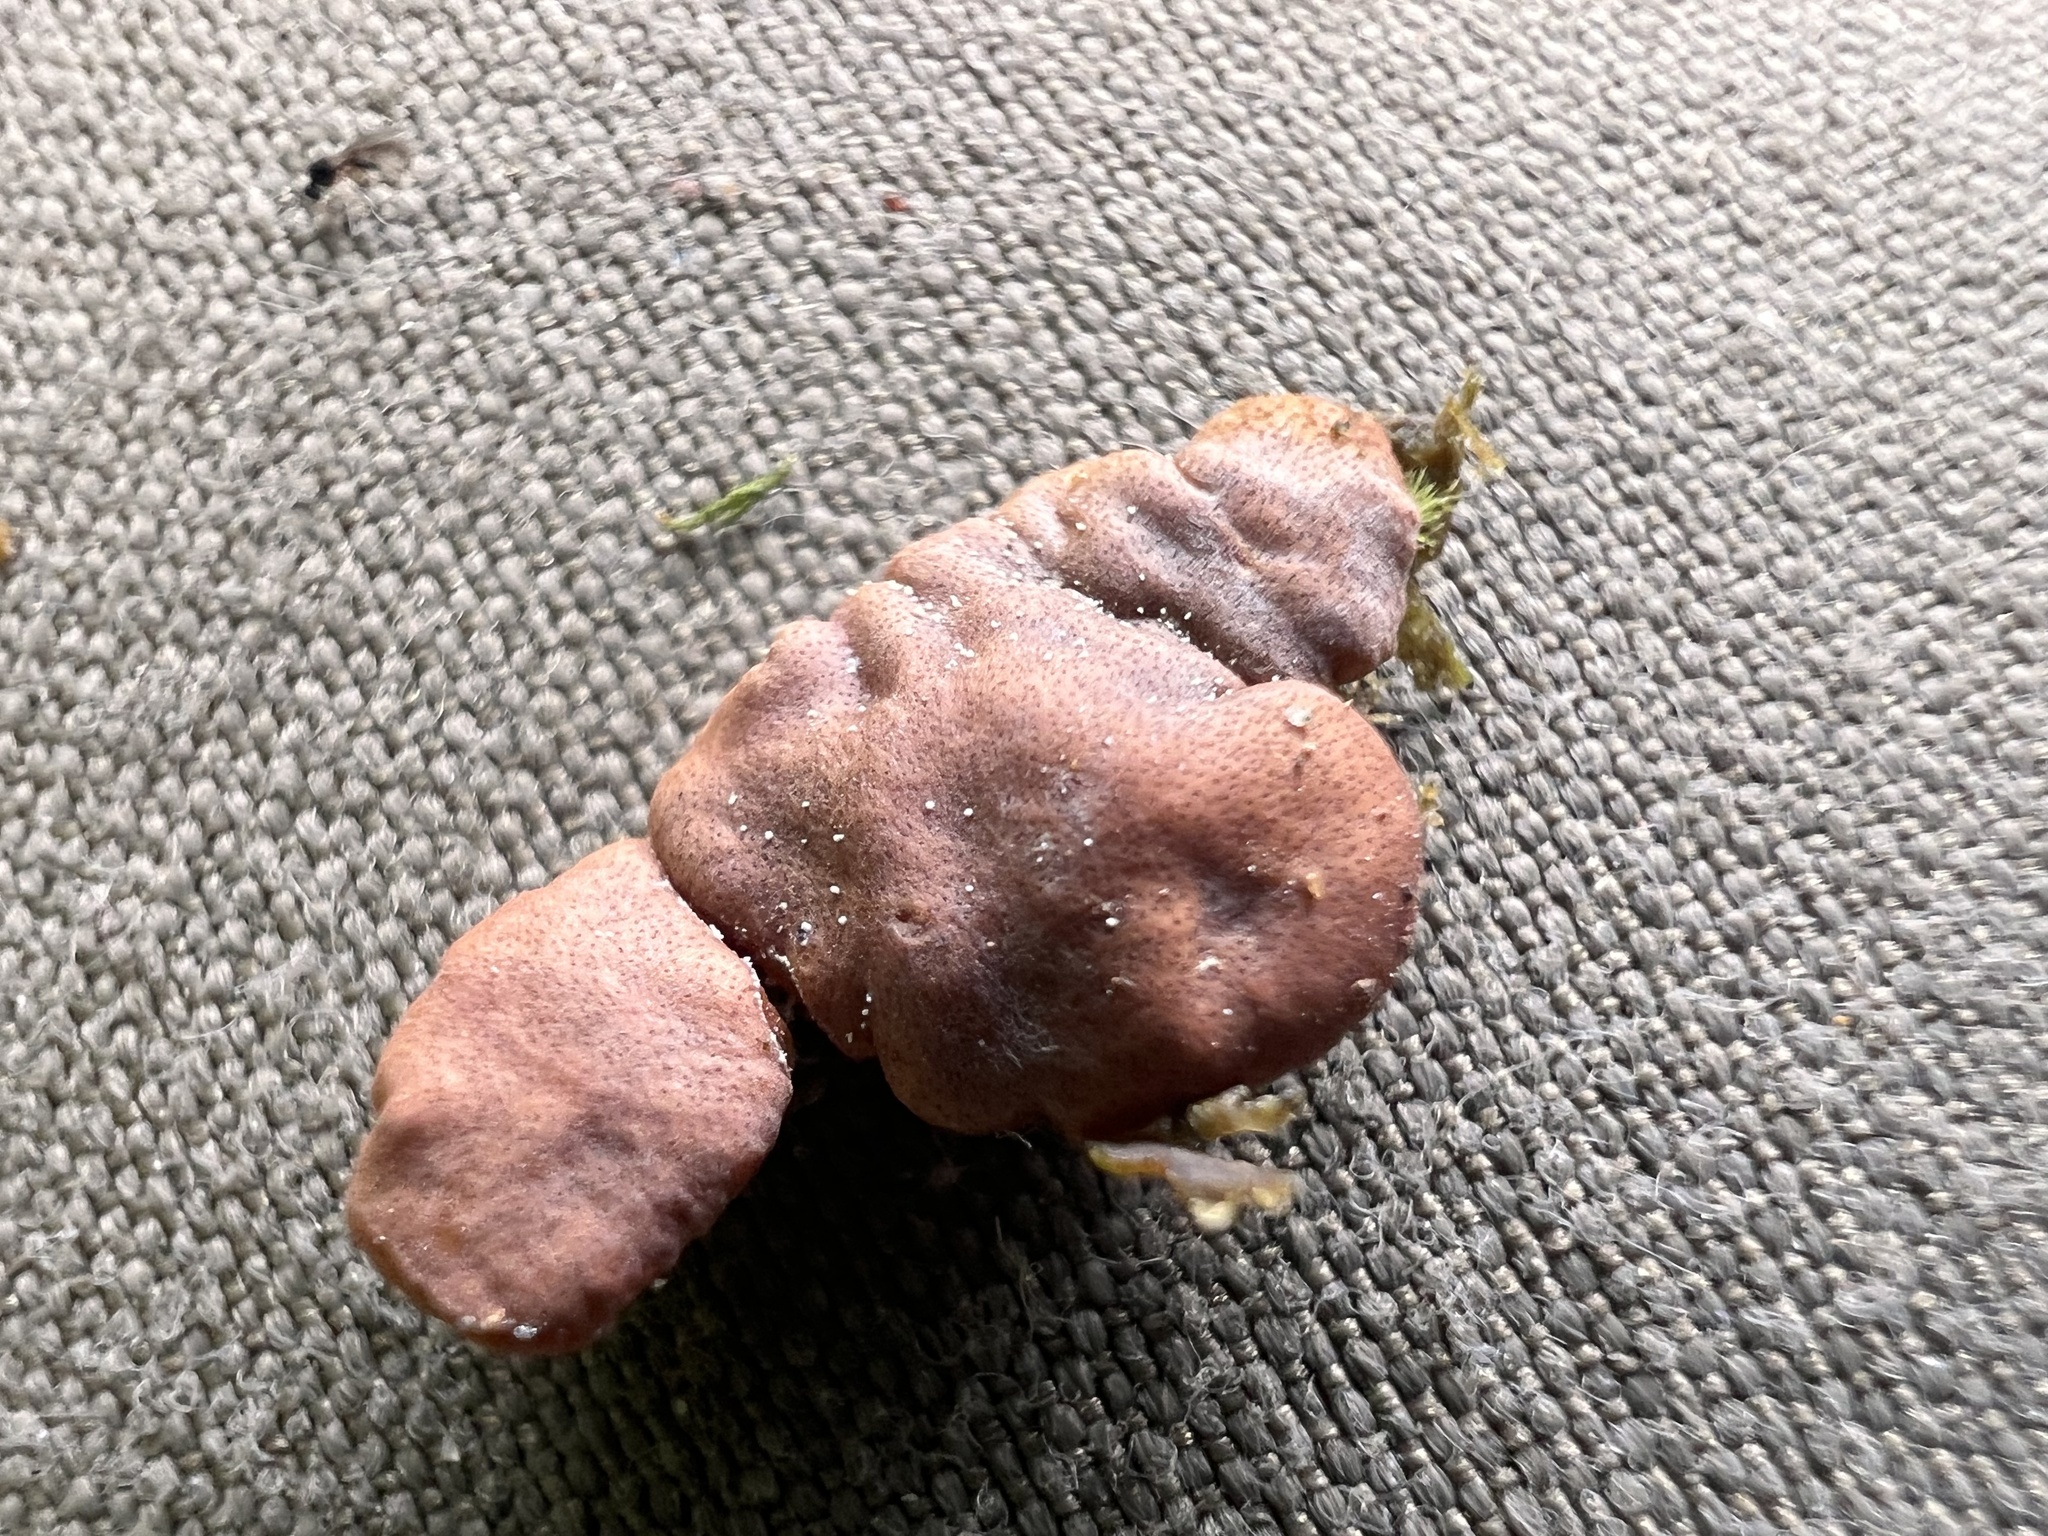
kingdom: Fungi
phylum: Ascomycota
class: Sordariomycetes
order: Xylariales
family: Hypoxylaceae
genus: Hypoxylon
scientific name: Hypoxylon howeanum
